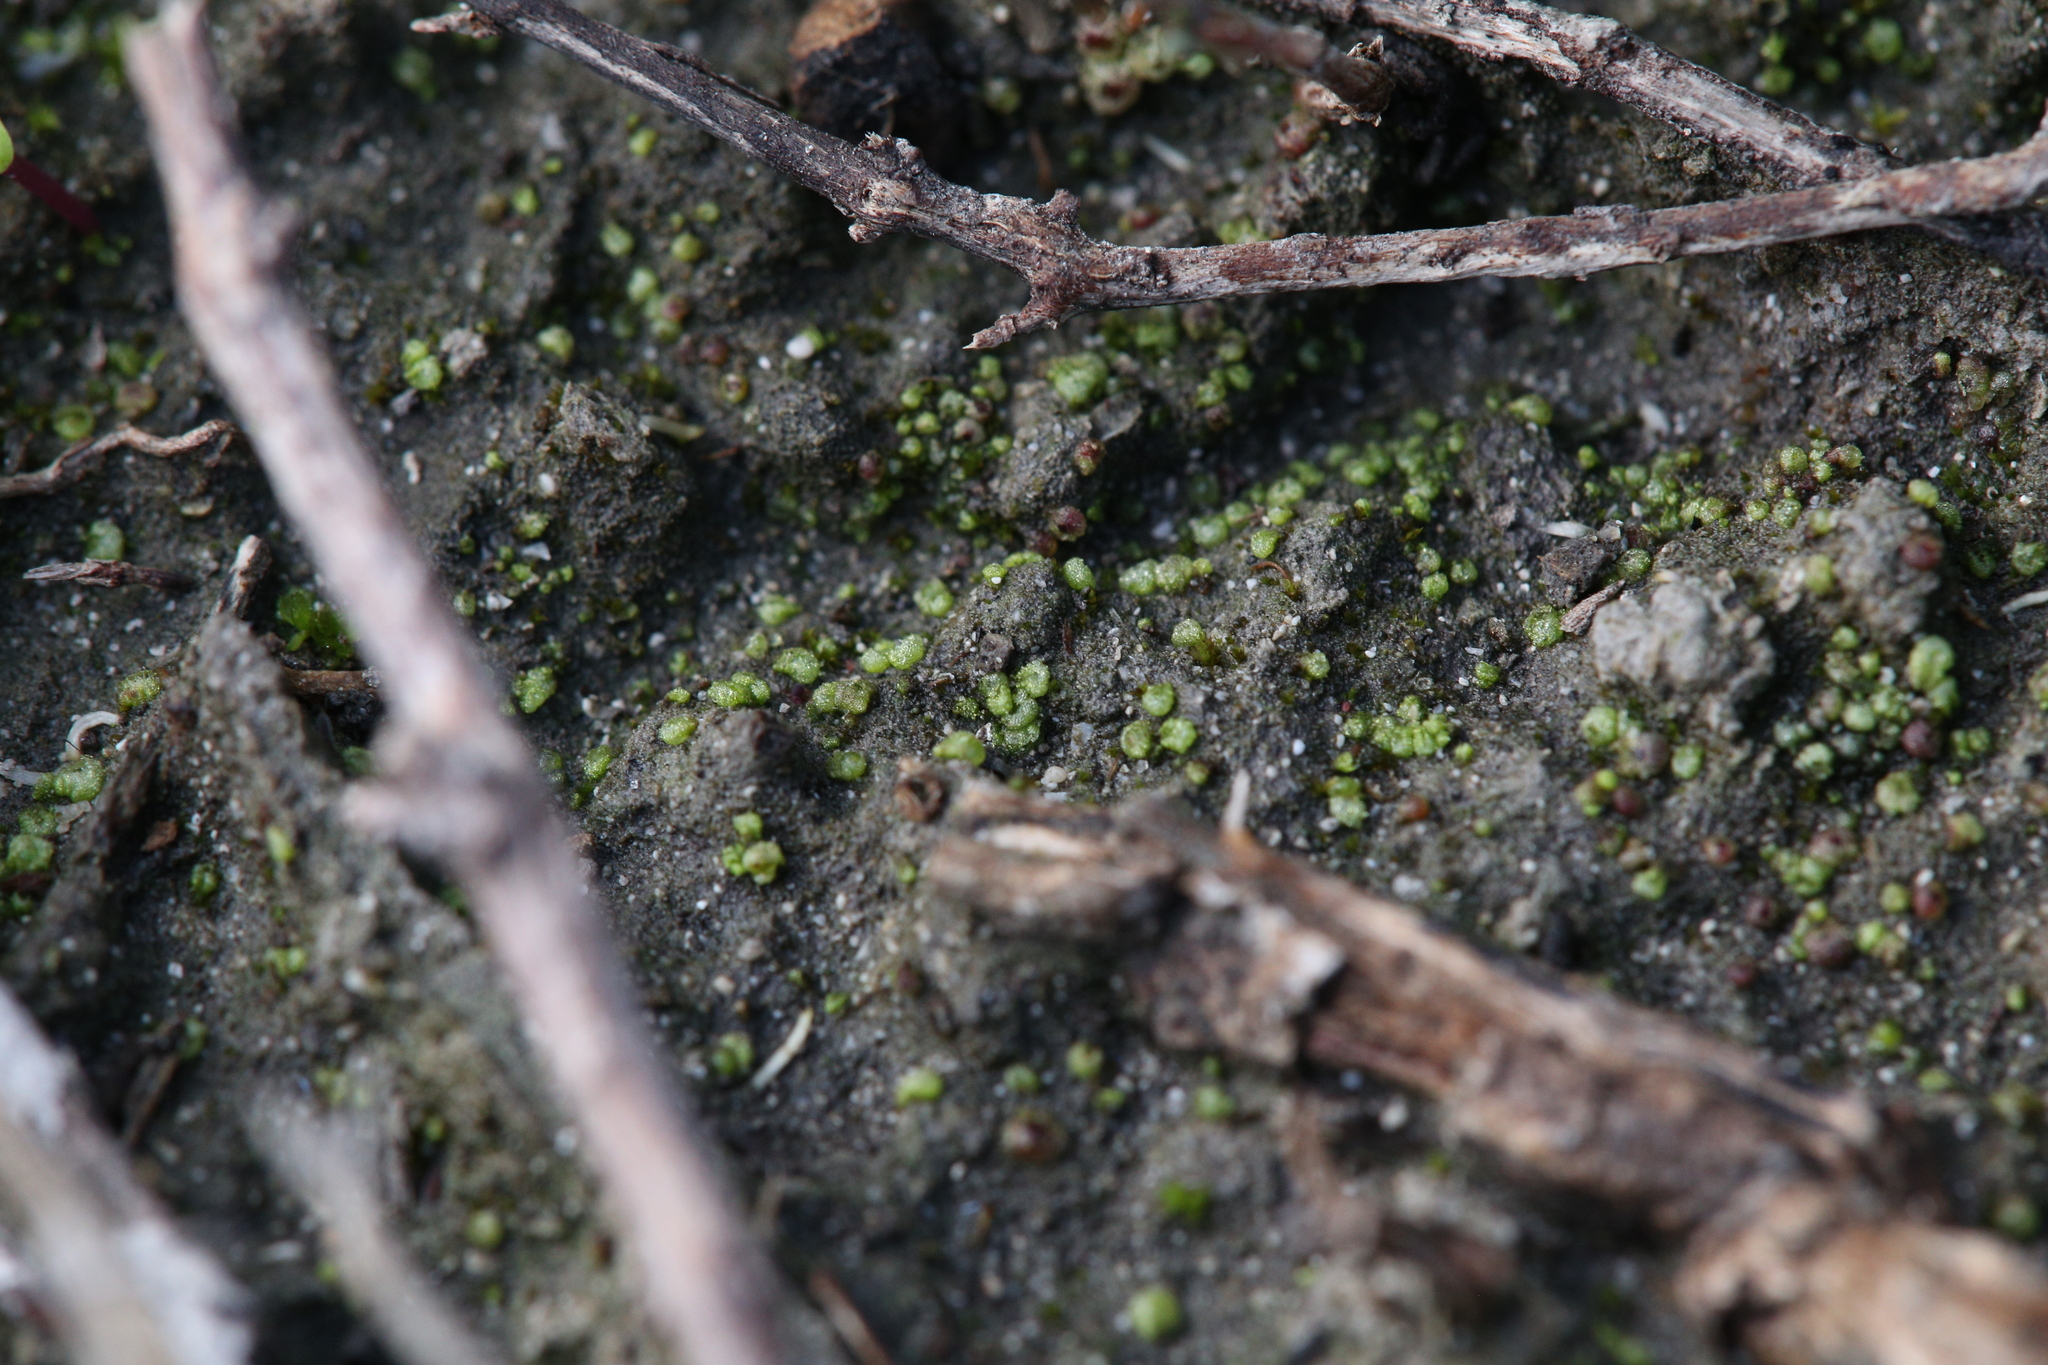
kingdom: Plantae
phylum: Marchantiophyta
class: Marchantiopsida
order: Sphaerocarpales
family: Monocarpaceae
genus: Monocarpus
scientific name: Monocarpus sphaerocarpus
